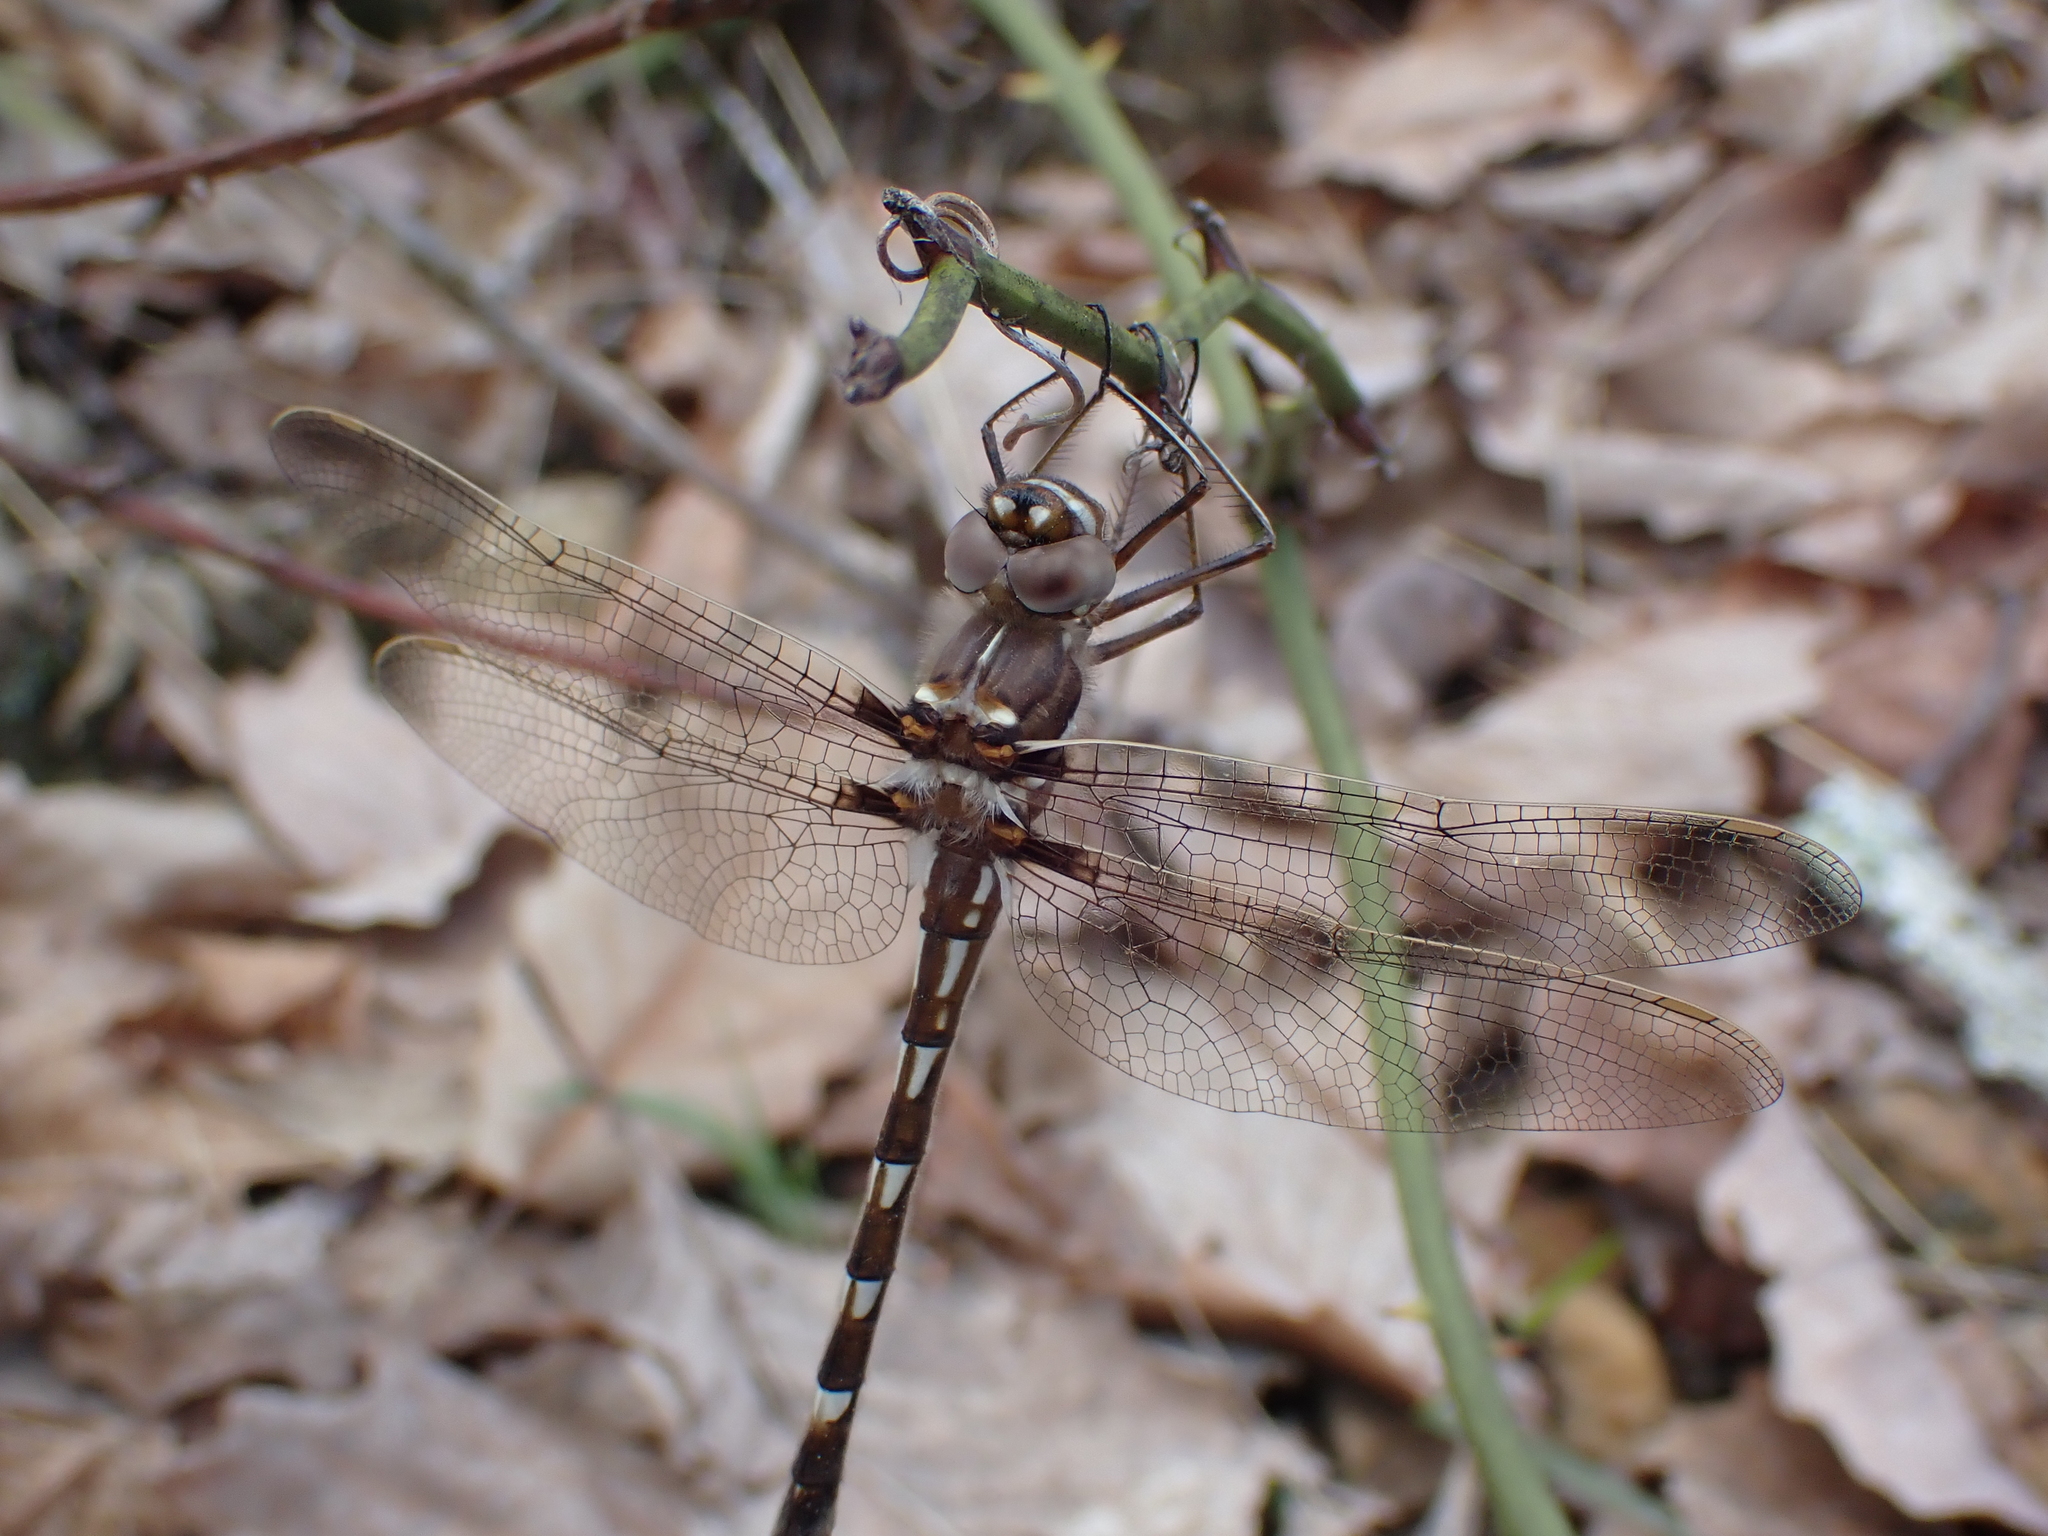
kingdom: Animalia
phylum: Arthropoda
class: Insecta
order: Odonata
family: Macromiidae
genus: Didymops
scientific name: Didymops transversa
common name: Stream cruiser
